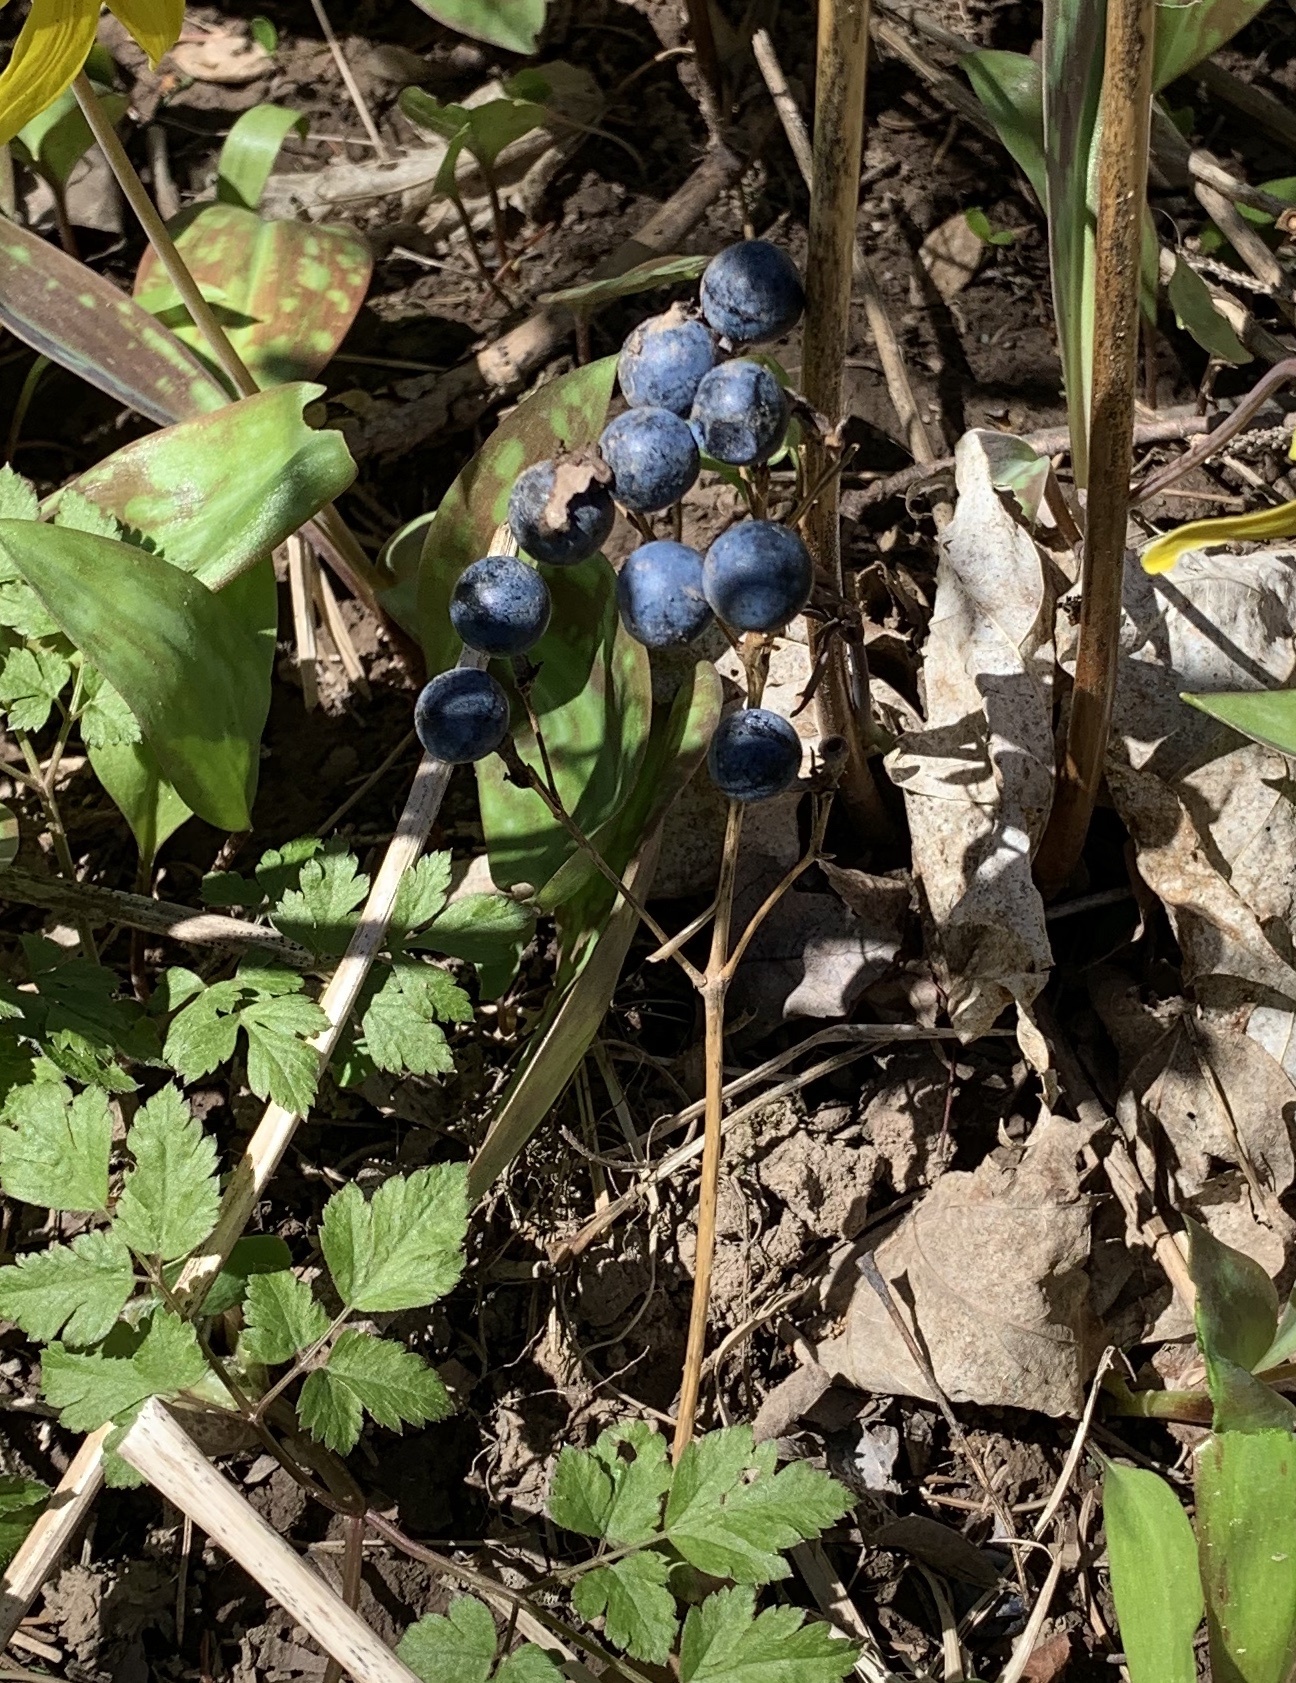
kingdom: Plantae
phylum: Tracheophyta
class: Magnoliopsida
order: Ranunculales
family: Berberidaceae
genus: Caulophyllum
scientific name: Caulophyllum thalictroides
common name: Blue cohosh
